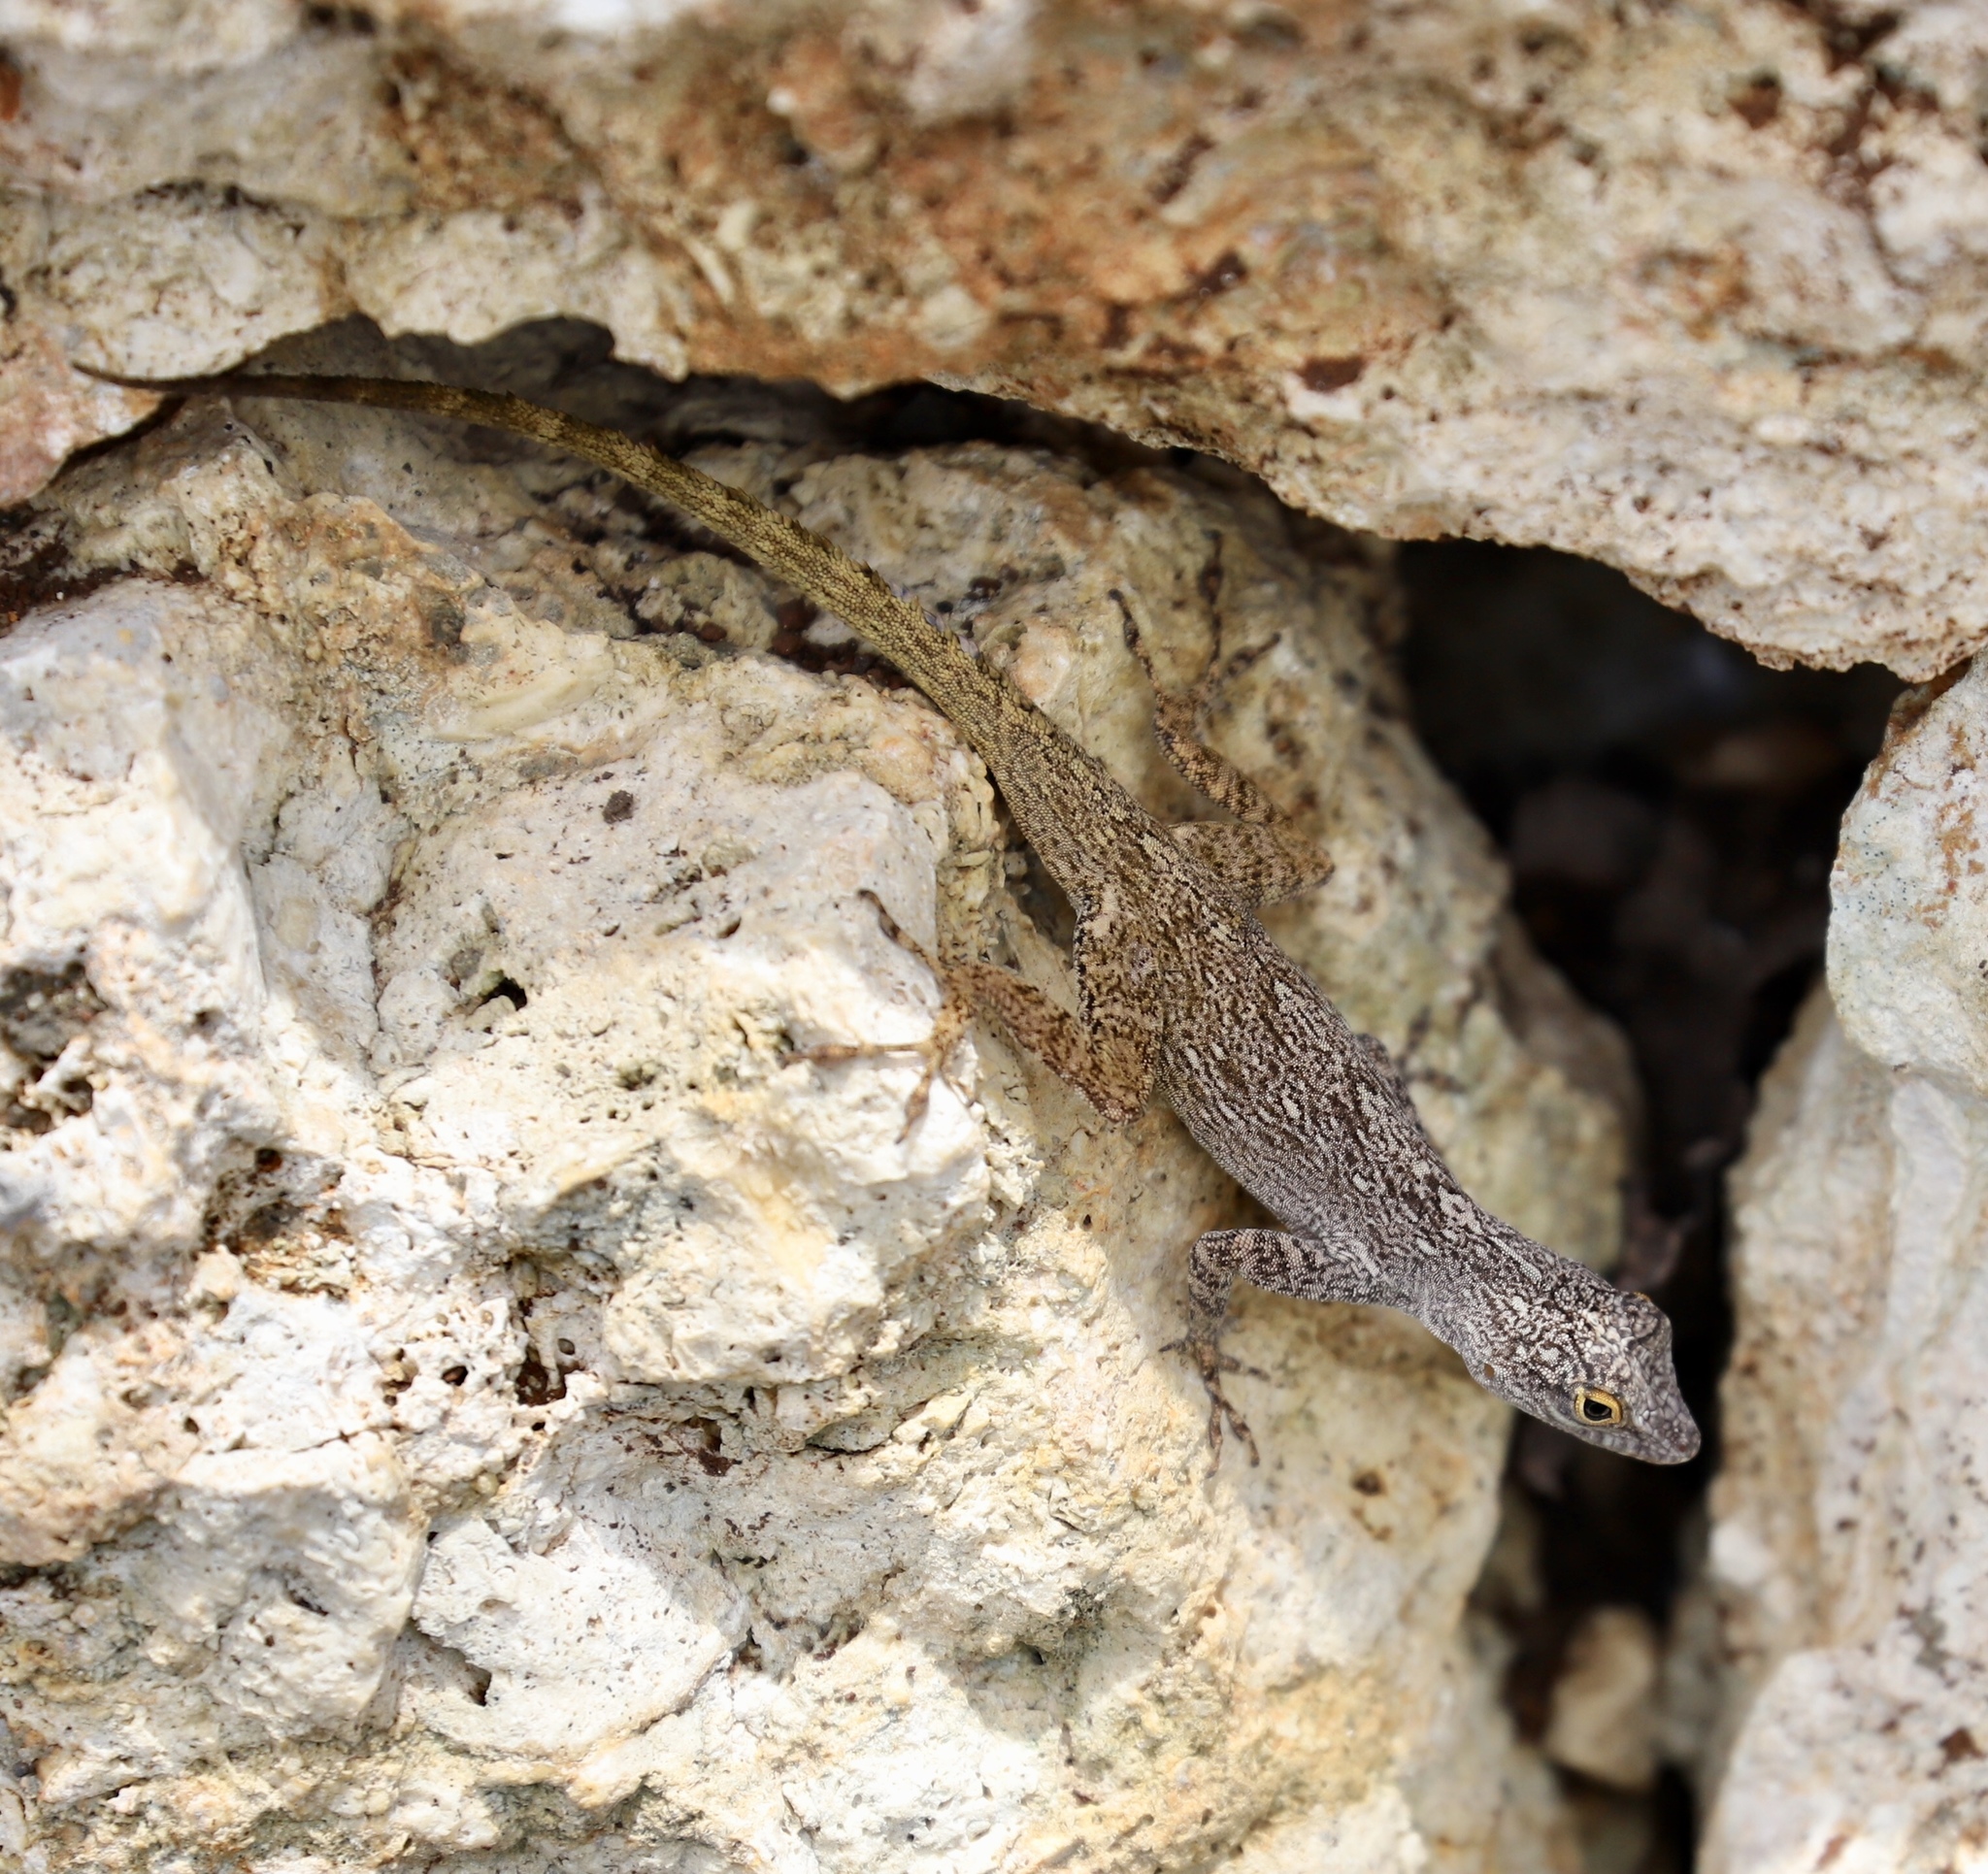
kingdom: Animalia
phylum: Chordata
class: Squamata
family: Dactyloidae
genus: Anolis
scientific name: Anolis distichus
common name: Bark anole
